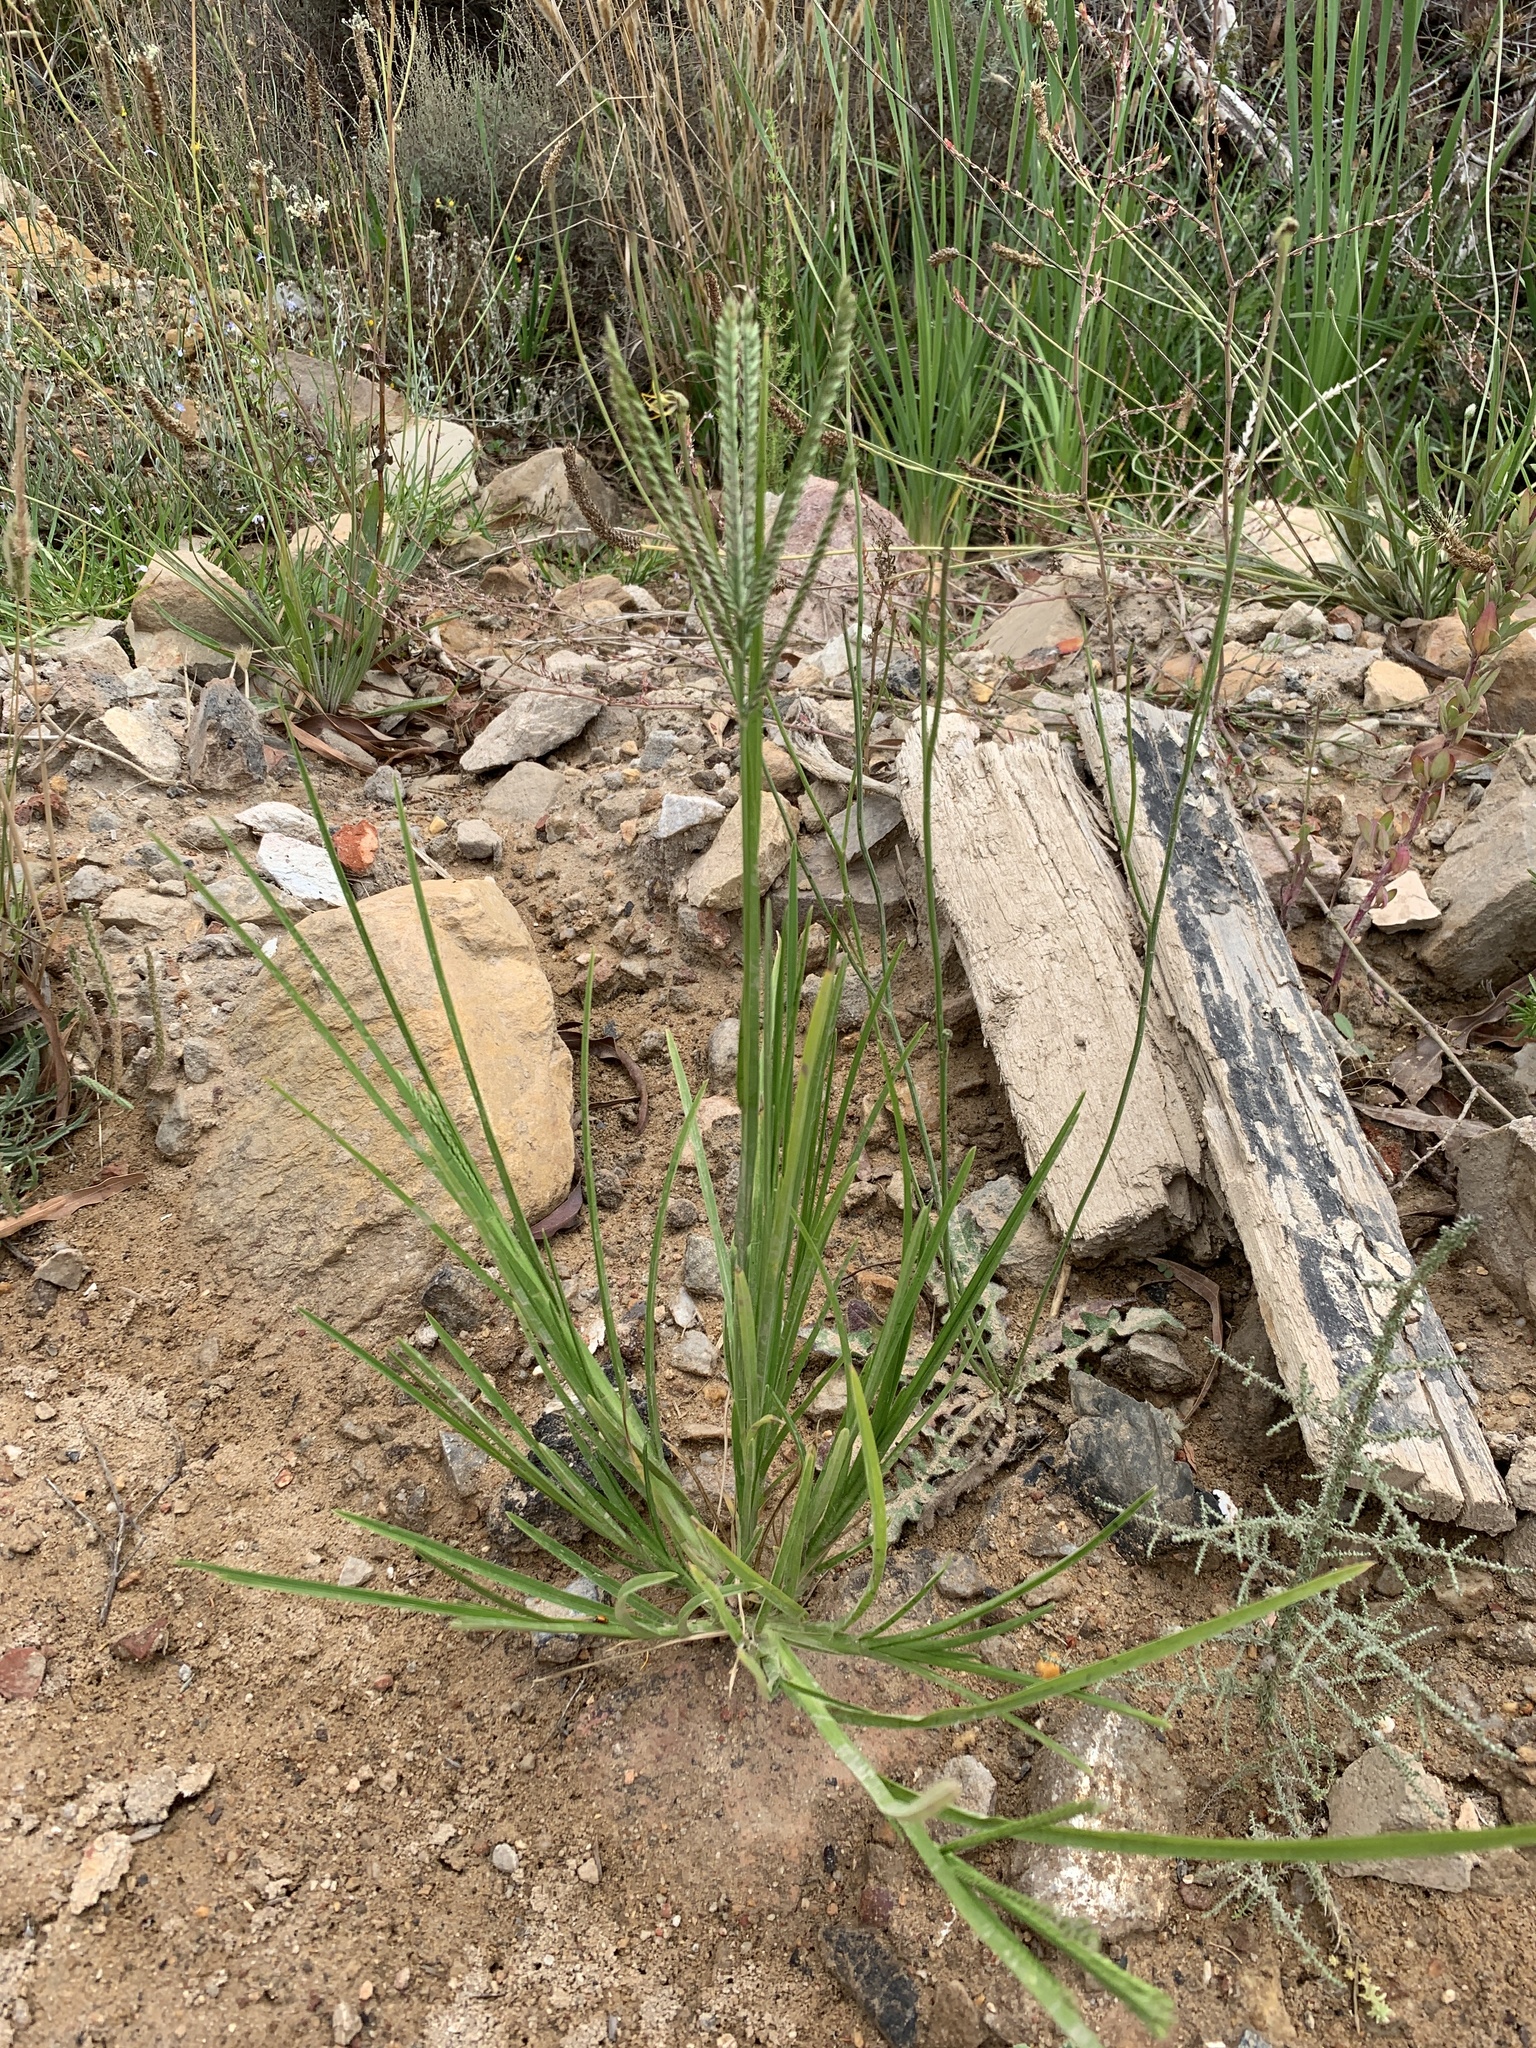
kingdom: Plantae
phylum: Tracheophyta
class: Liliopsida
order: Poales
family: Poaceae
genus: Eleusine
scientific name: Eleusine indica
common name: Yard-grass
